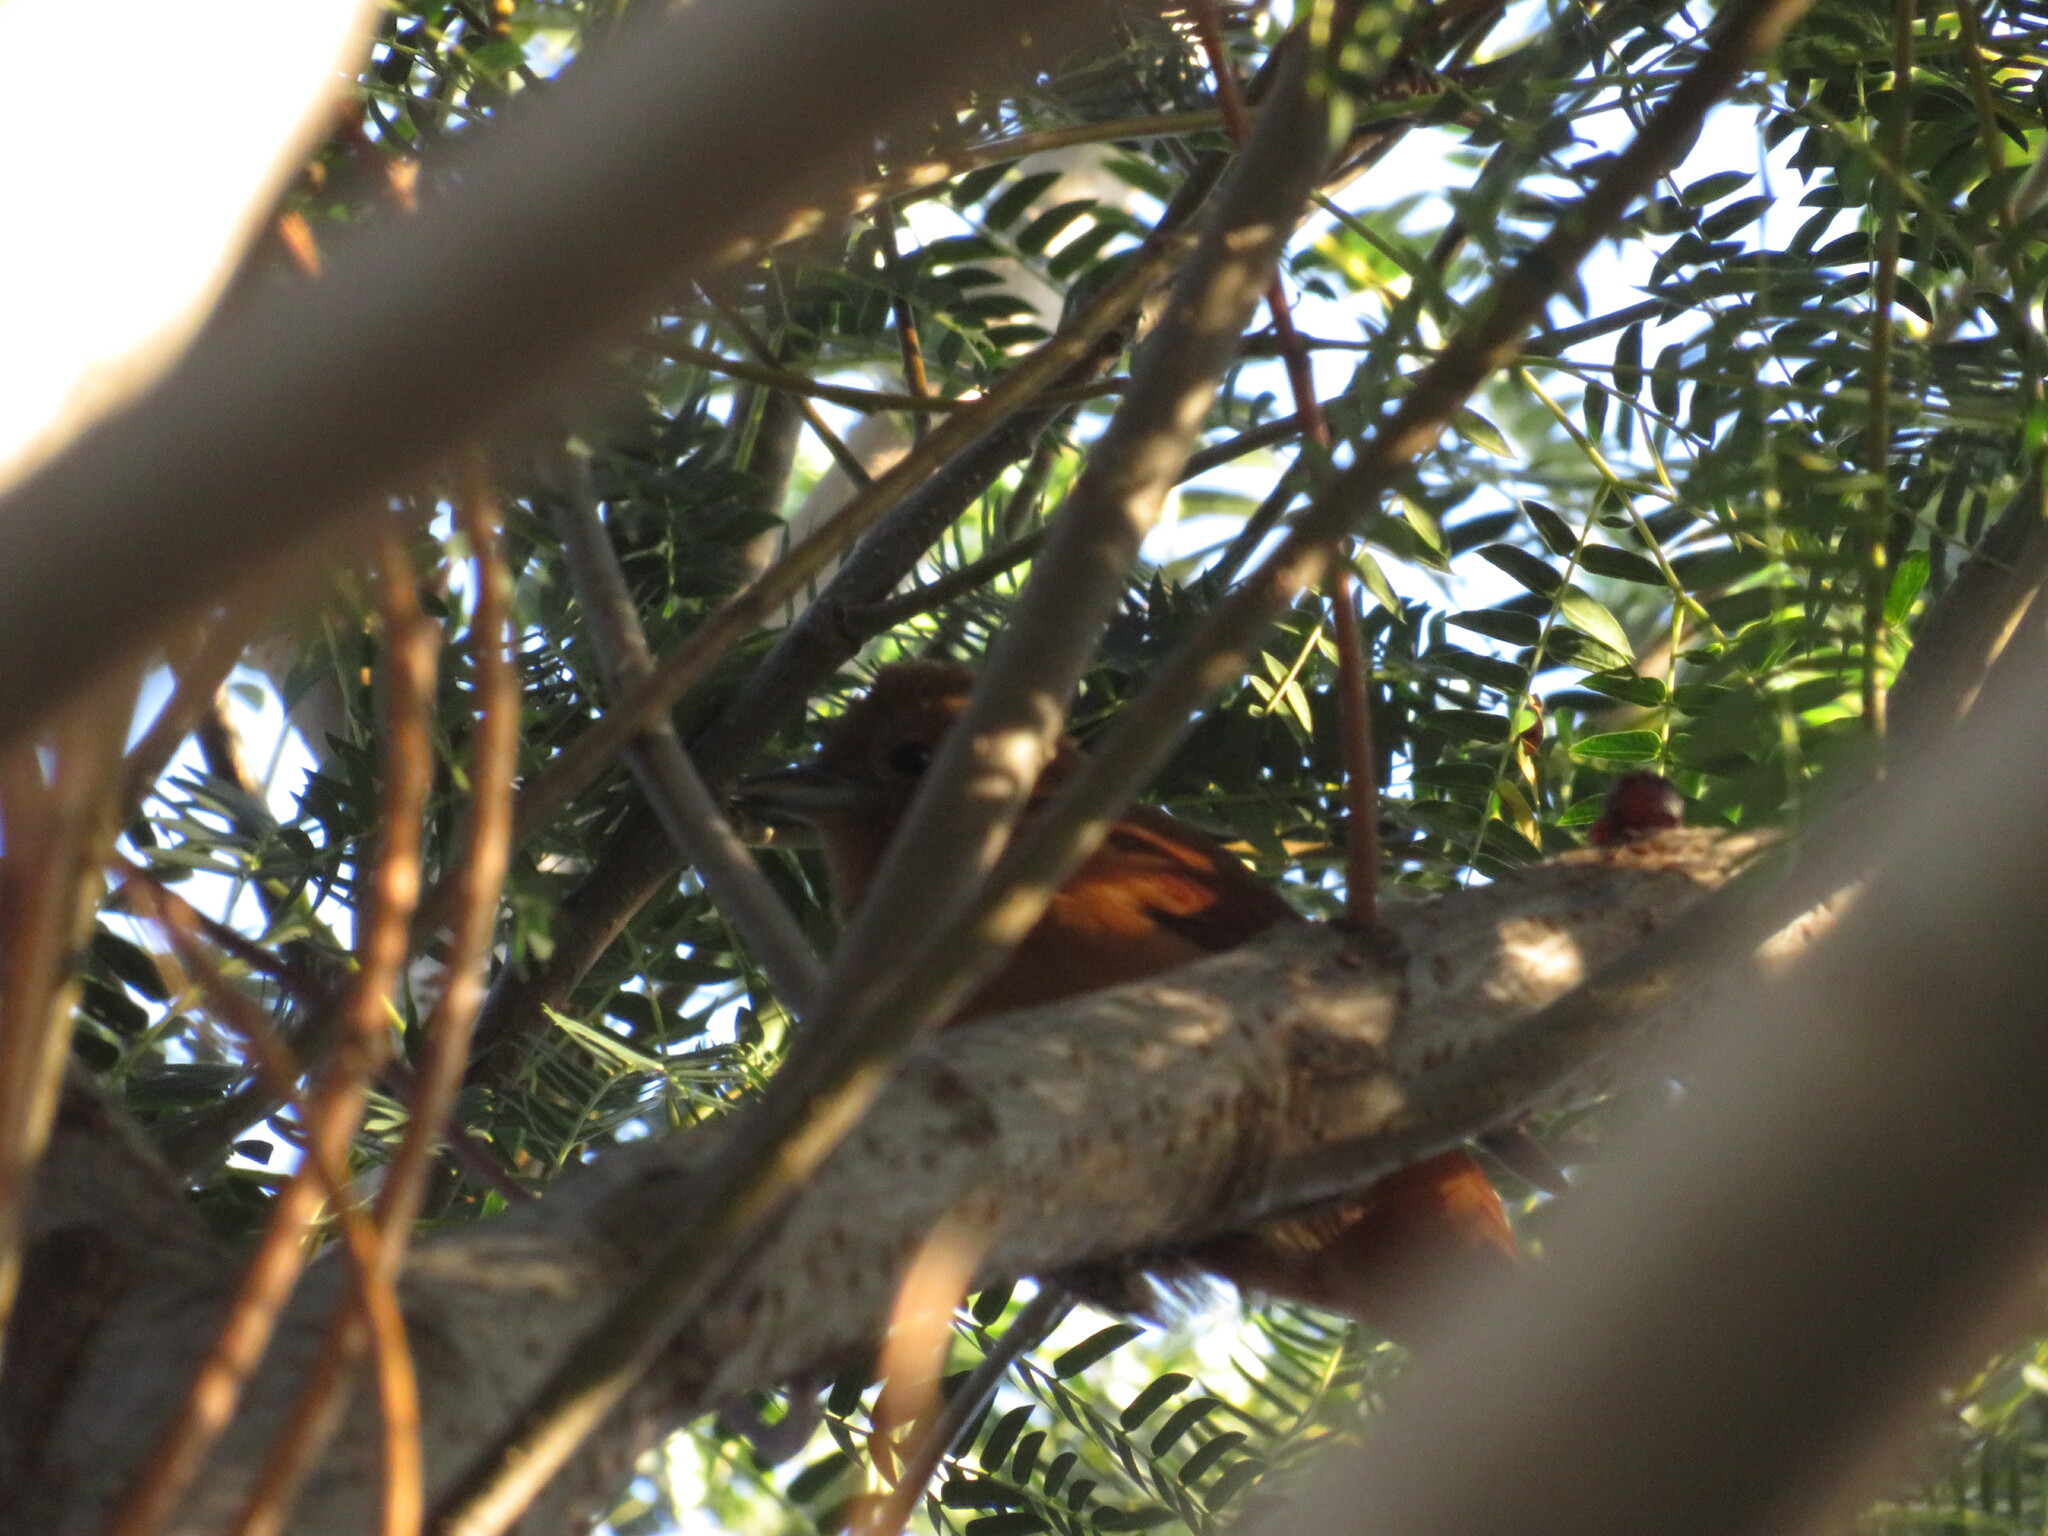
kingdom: Animalia
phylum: Chordata
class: Aves
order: Passeriformes
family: Thraupidae
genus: Tachyphonus
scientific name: Tachyphonus rufus
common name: White-lined tanager
